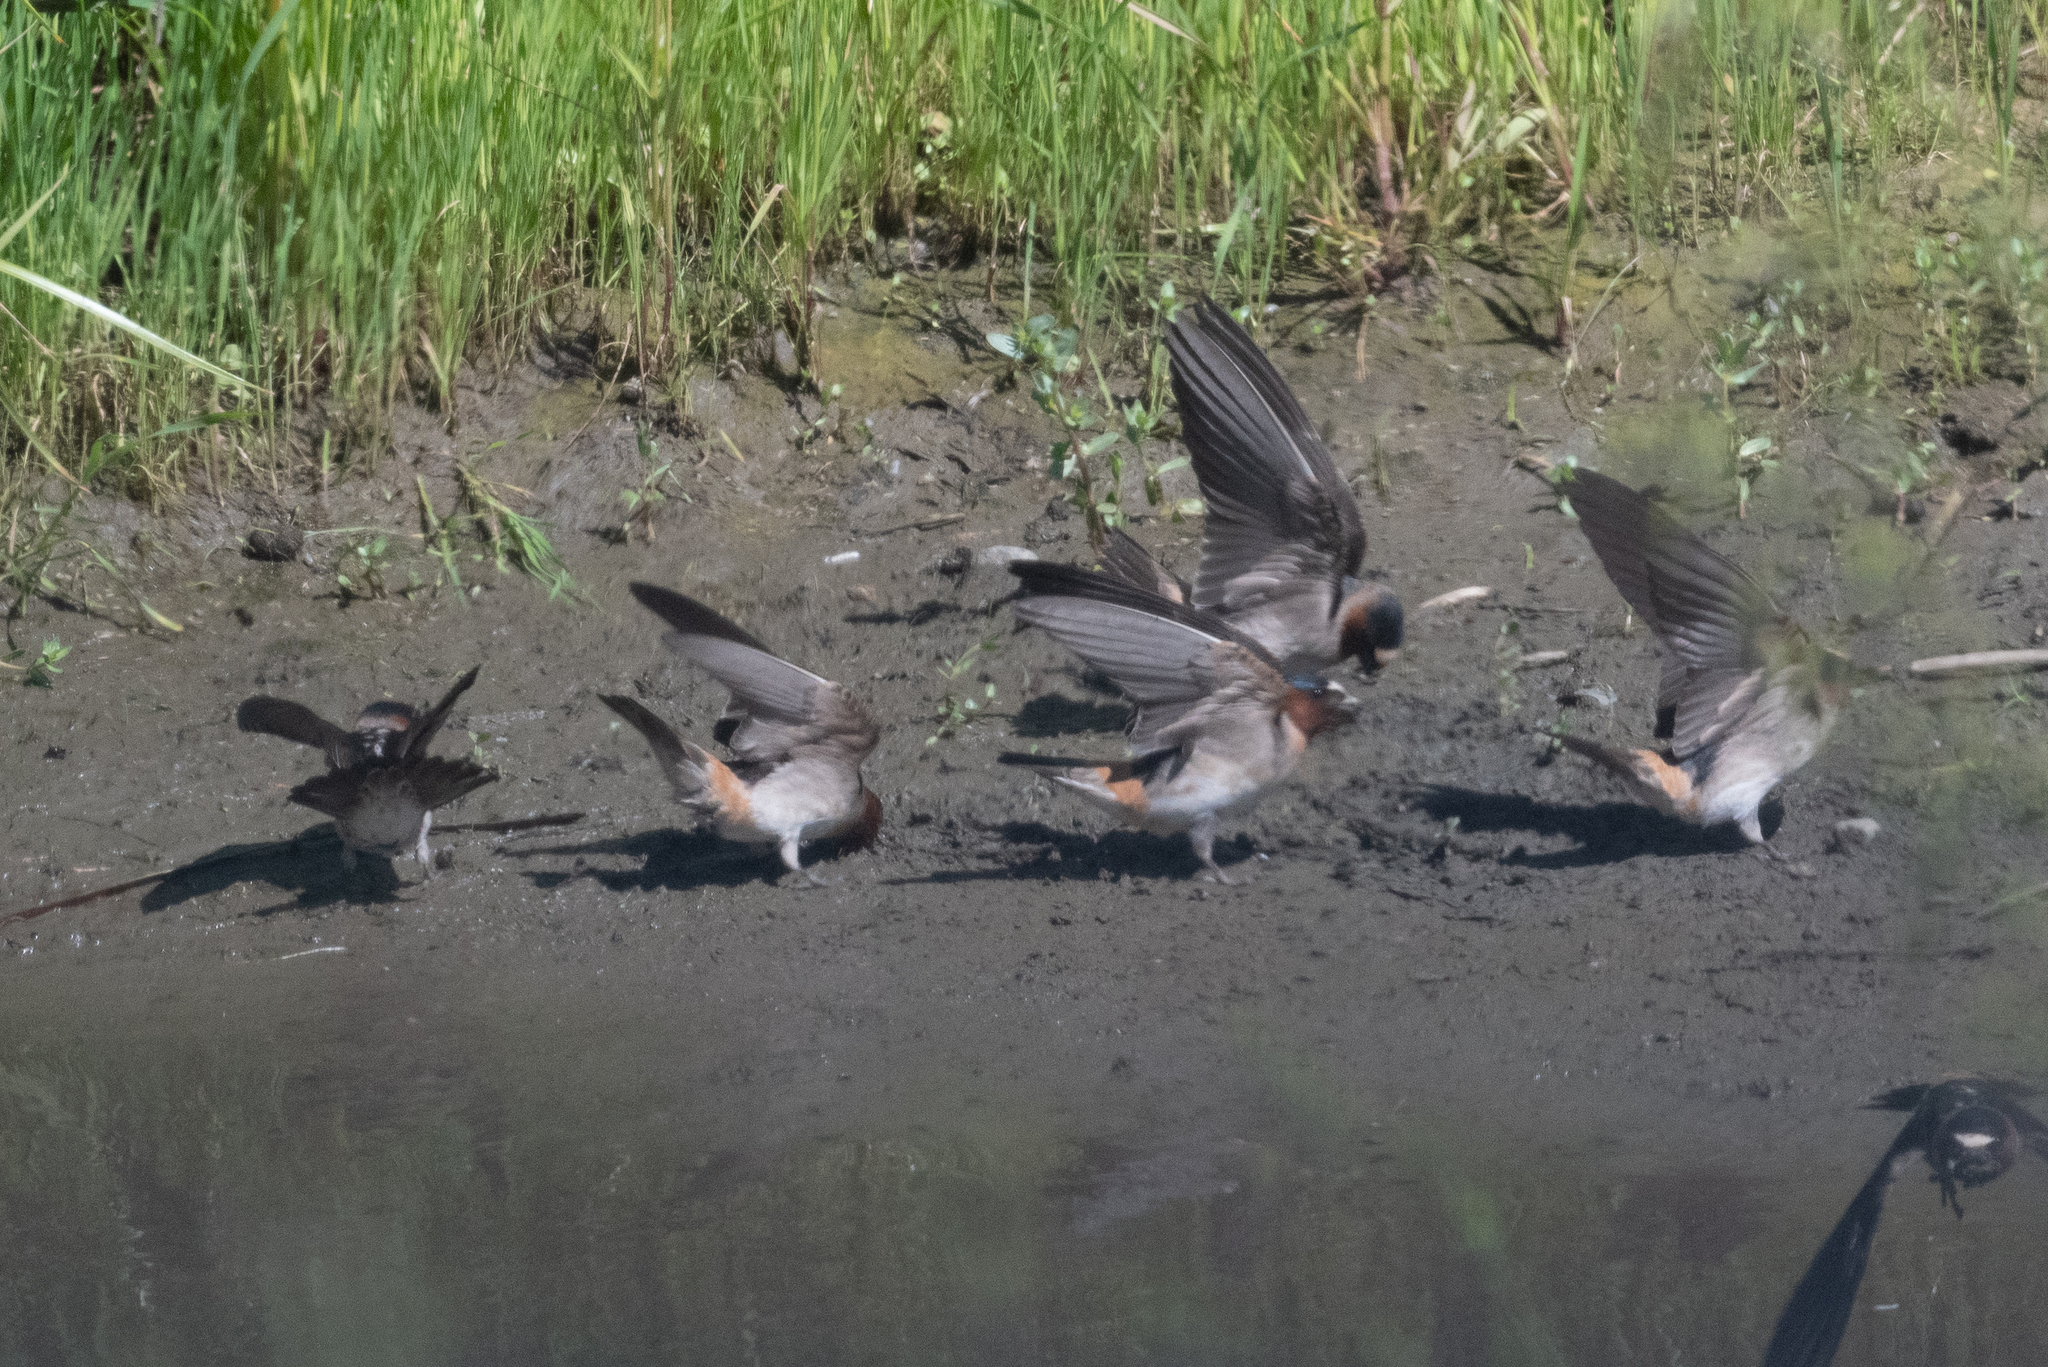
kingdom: Animalia
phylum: Chordata
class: Aves
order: Passeriformes
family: Hirundinidae
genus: Petrochelidon
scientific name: Petrochelidon pyrrhonota
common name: American cliff swallow
